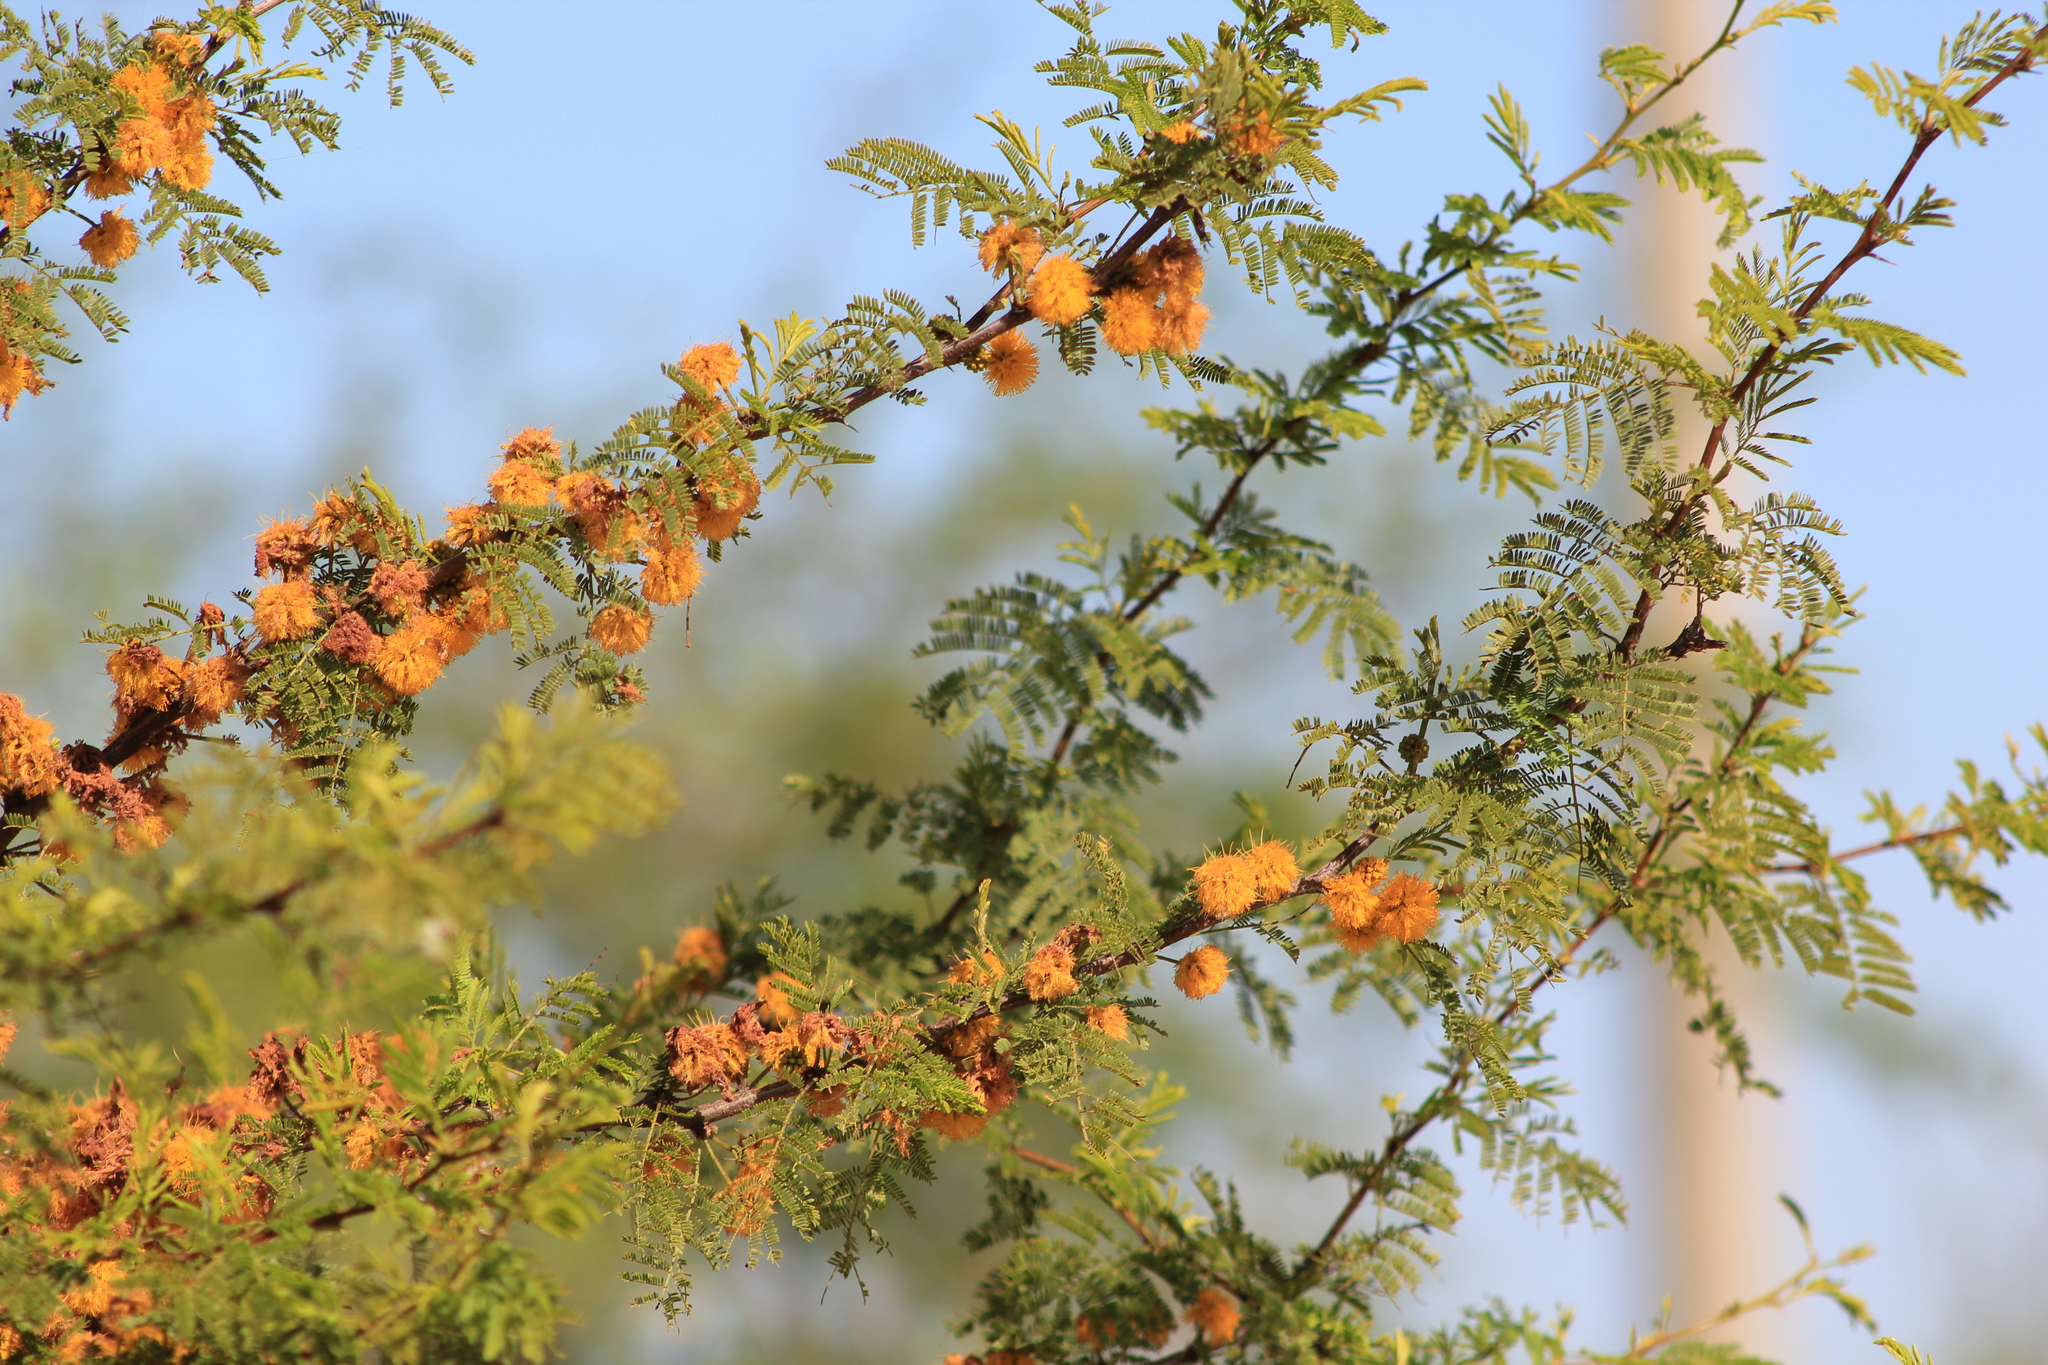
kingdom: Plantae
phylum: Tracheophyta
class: Magnoliopsida
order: Fabales
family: Fabaceae
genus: Vachellia
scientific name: Vachellia caven
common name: Roman cassie
